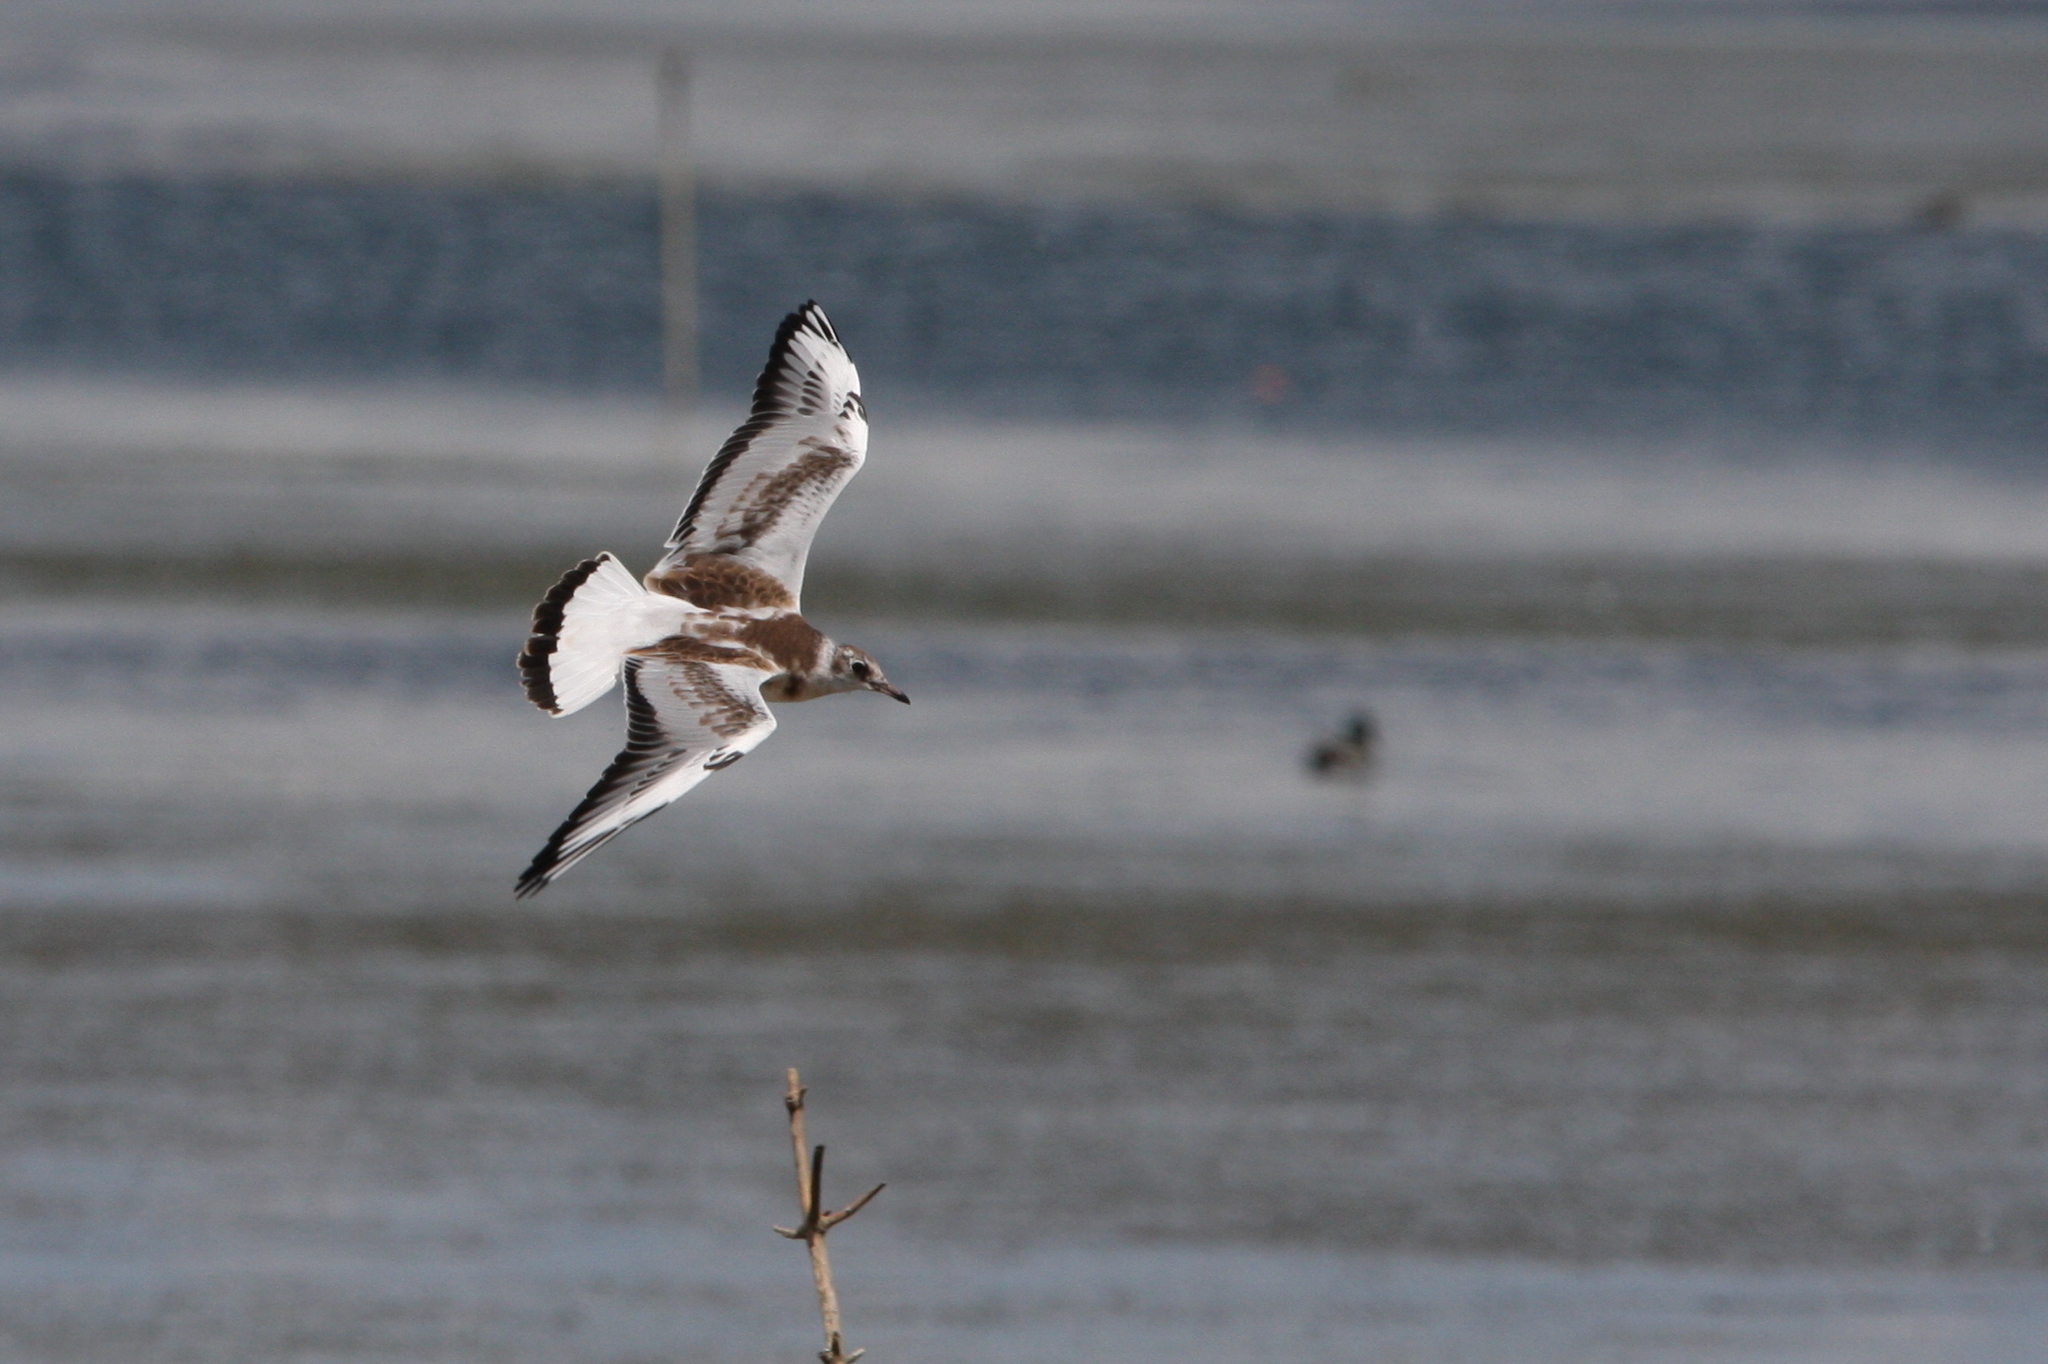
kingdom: Animalia
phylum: Chordata
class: Aves
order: Charadriiformes
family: Laridae
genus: Chroicocephalus
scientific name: Chroicocephalus ridibundus
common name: Black-headed gull
